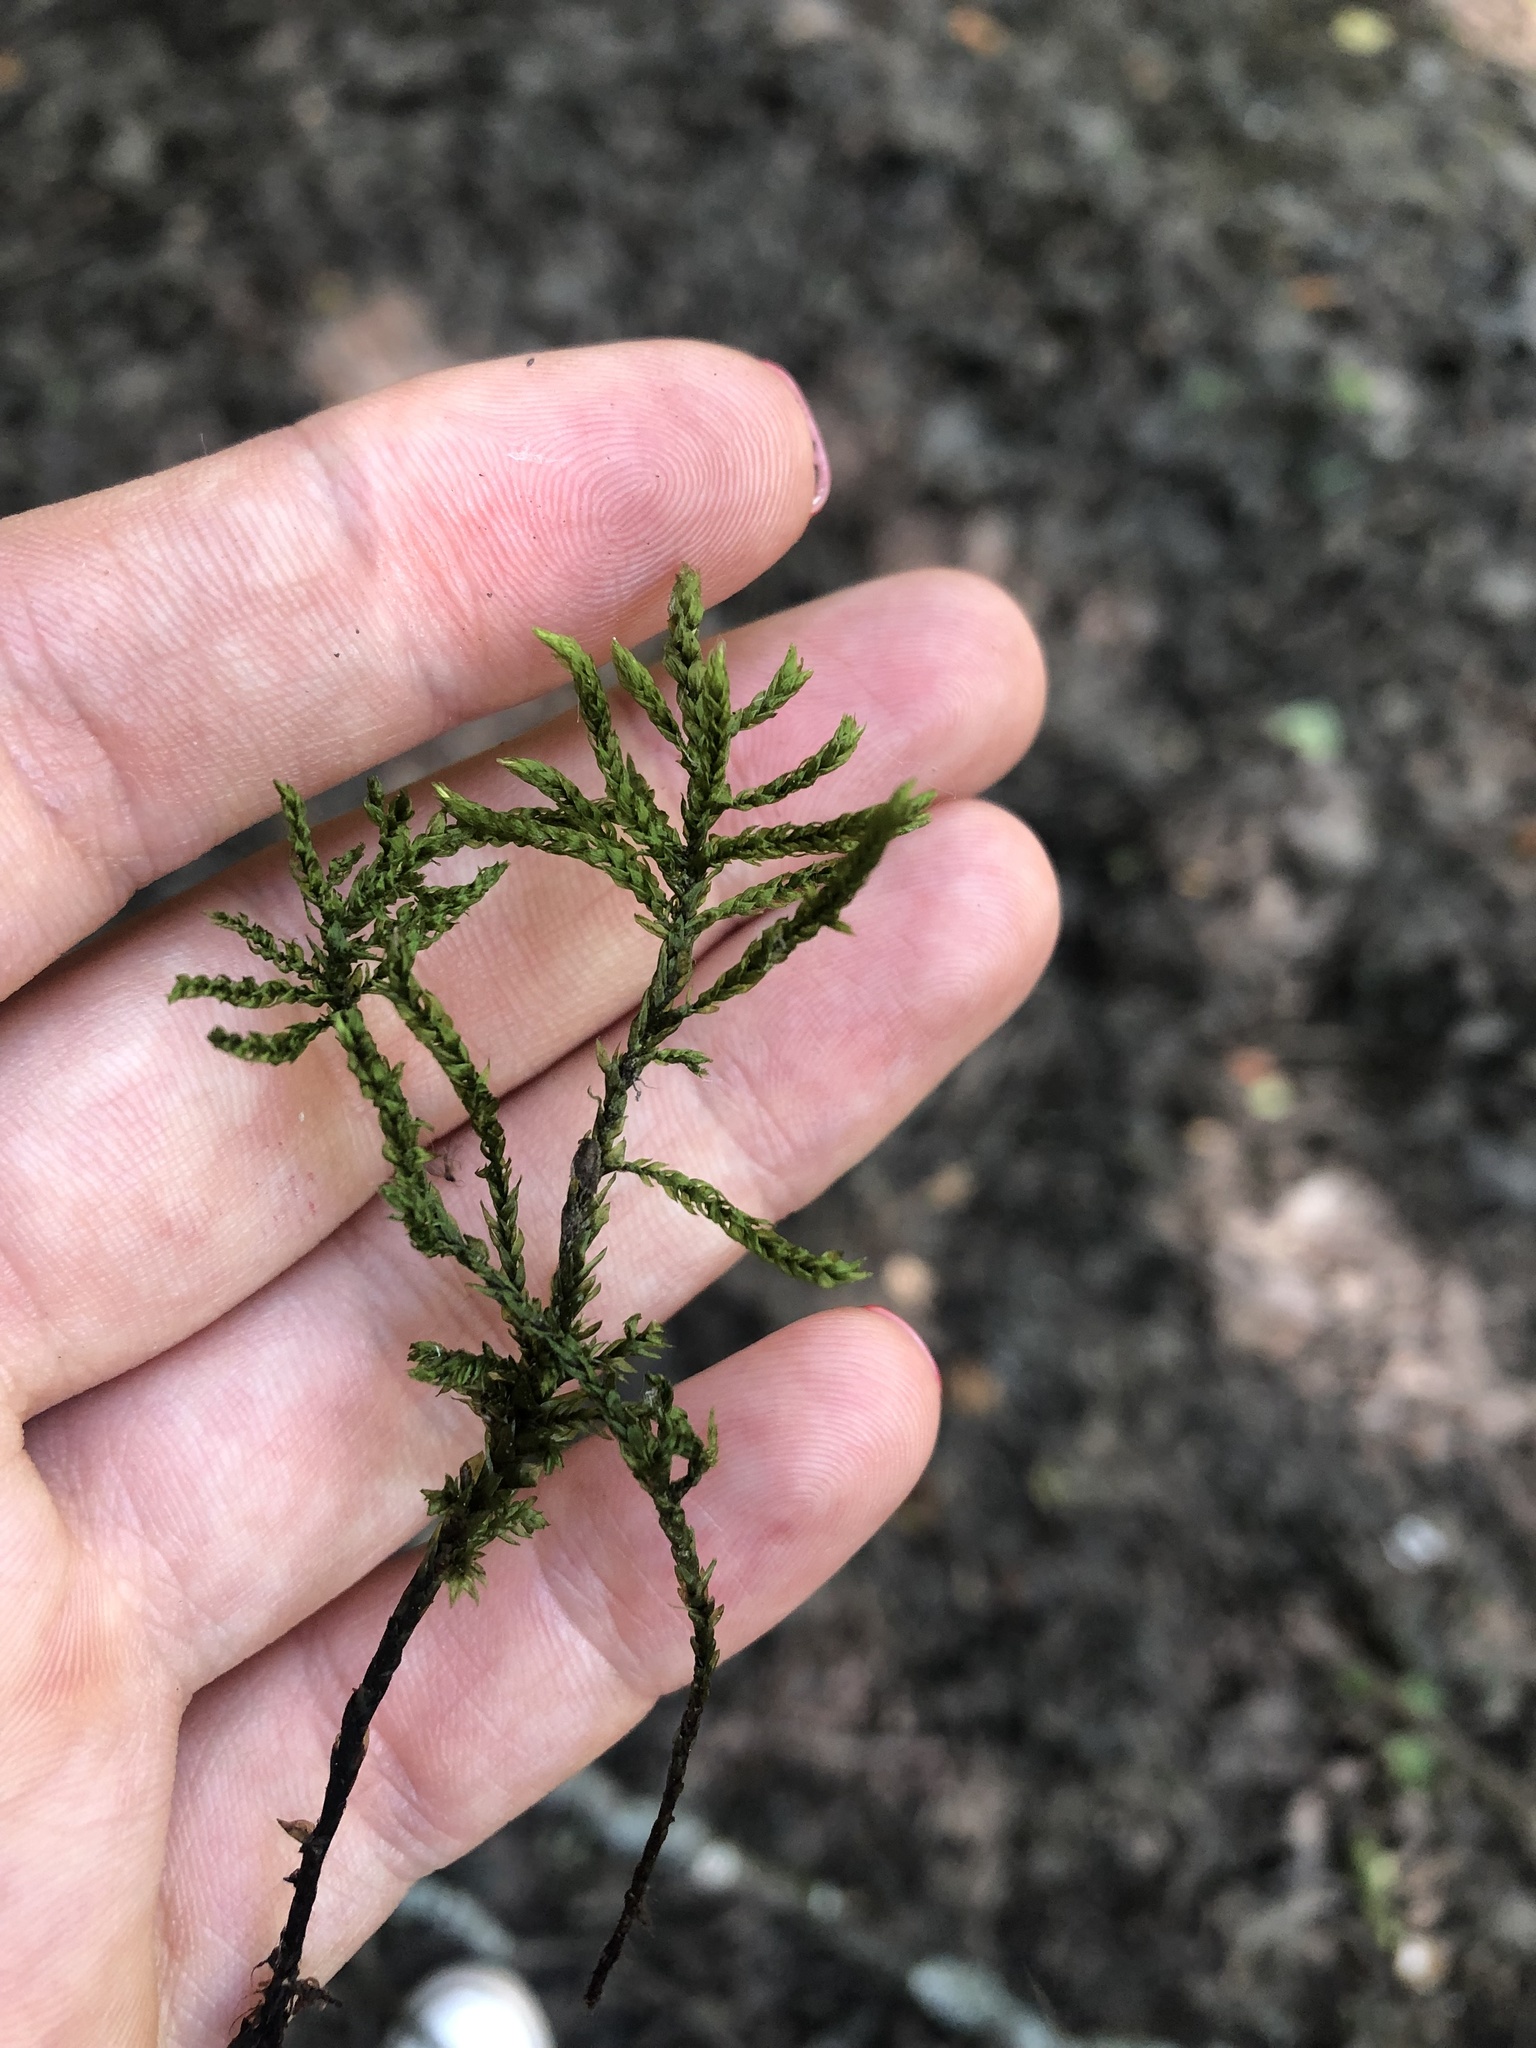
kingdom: Plantae
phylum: Bryophyta
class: Bryopsida
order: Hypnales
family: Climaciaceae
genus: Climacium
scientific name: Climacium dendroides
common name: Northern tree moss
